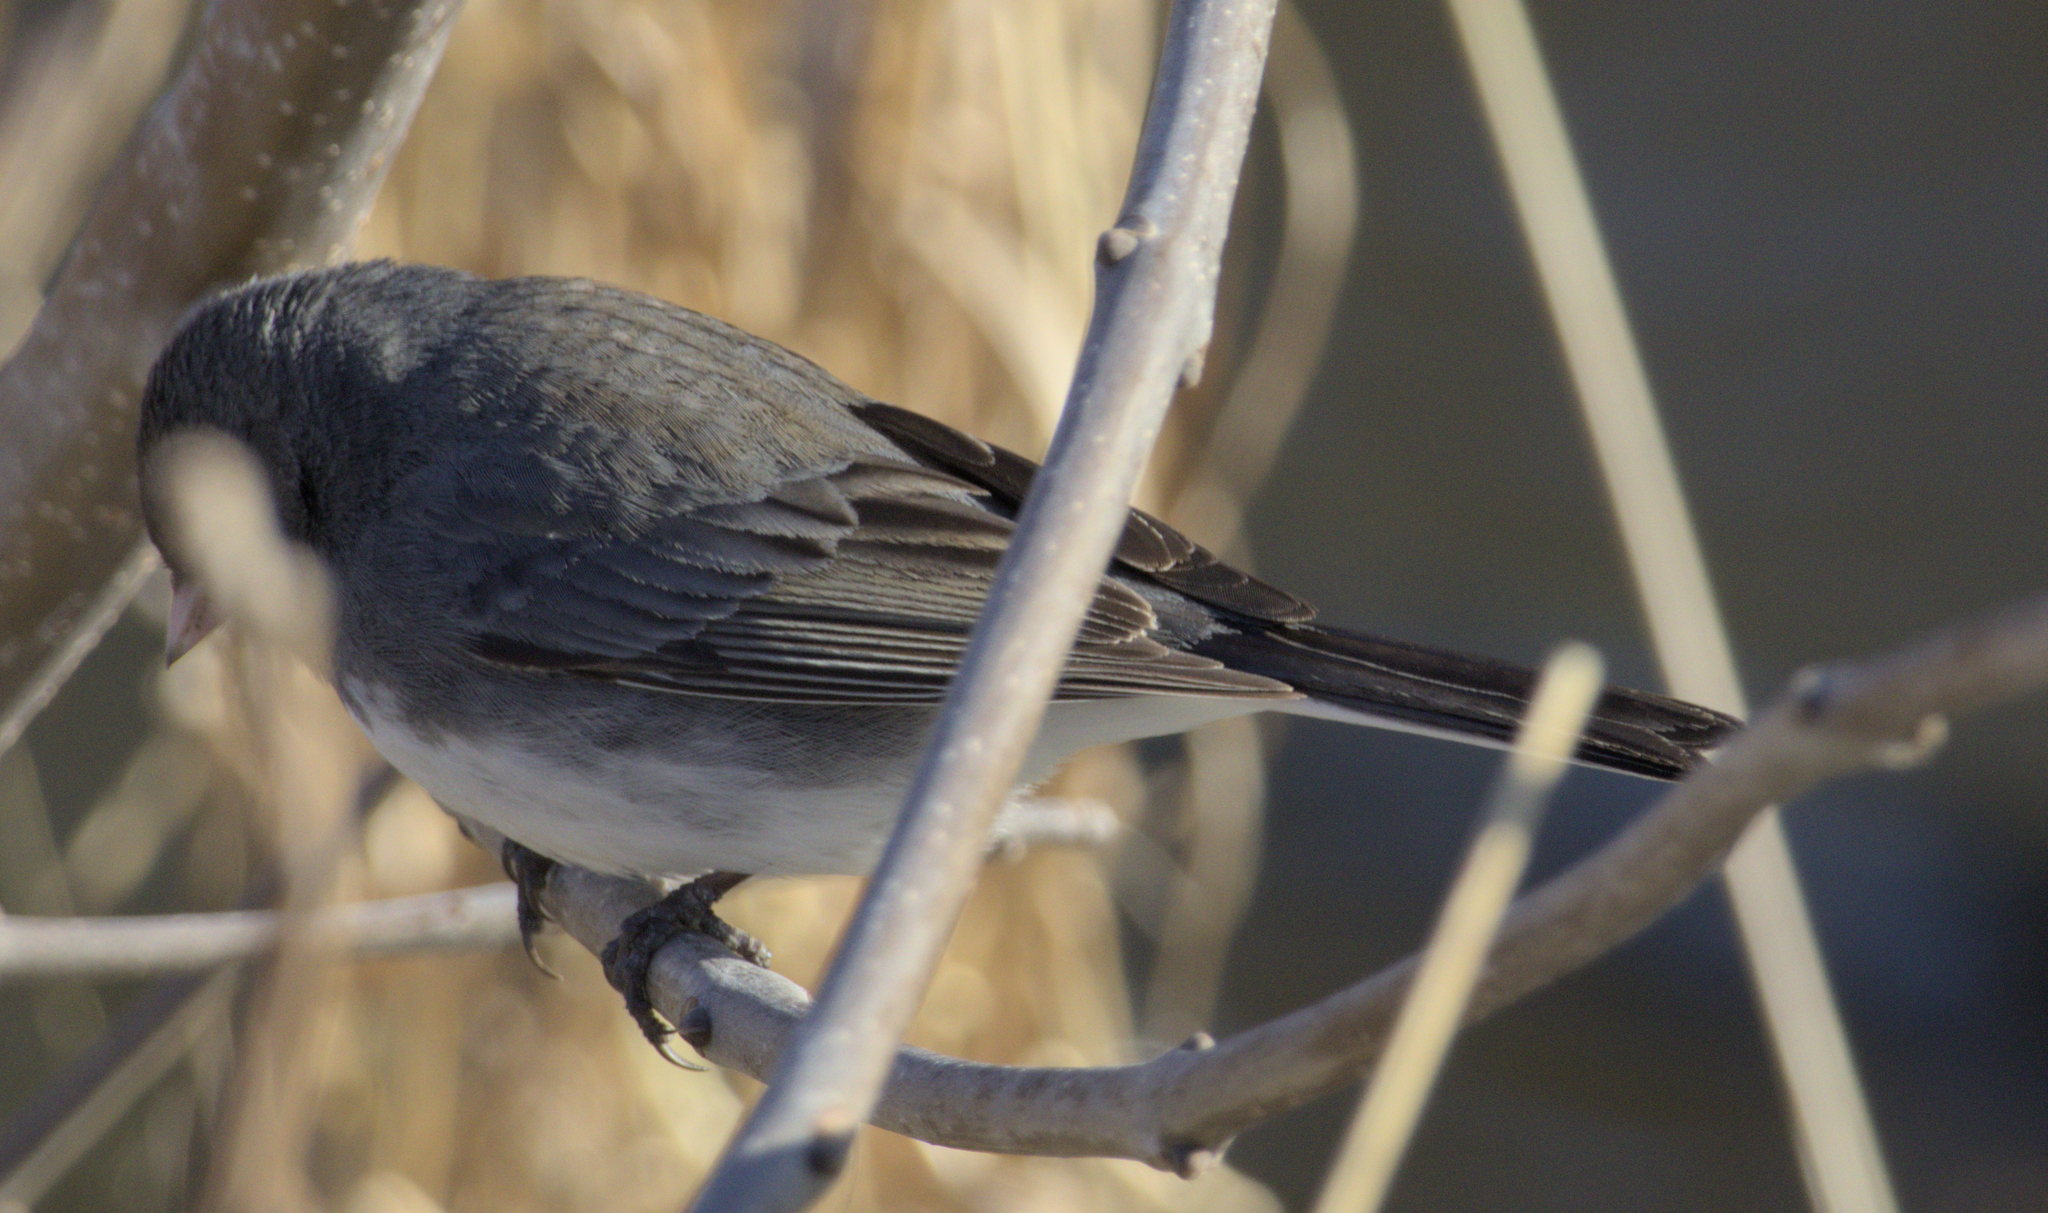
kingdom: Animalia
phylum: Chordata
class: Aves
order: Passeriformes
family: Passerellidae
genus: Junco
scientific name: Junco hyemalis
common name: Dark-eyed junco
